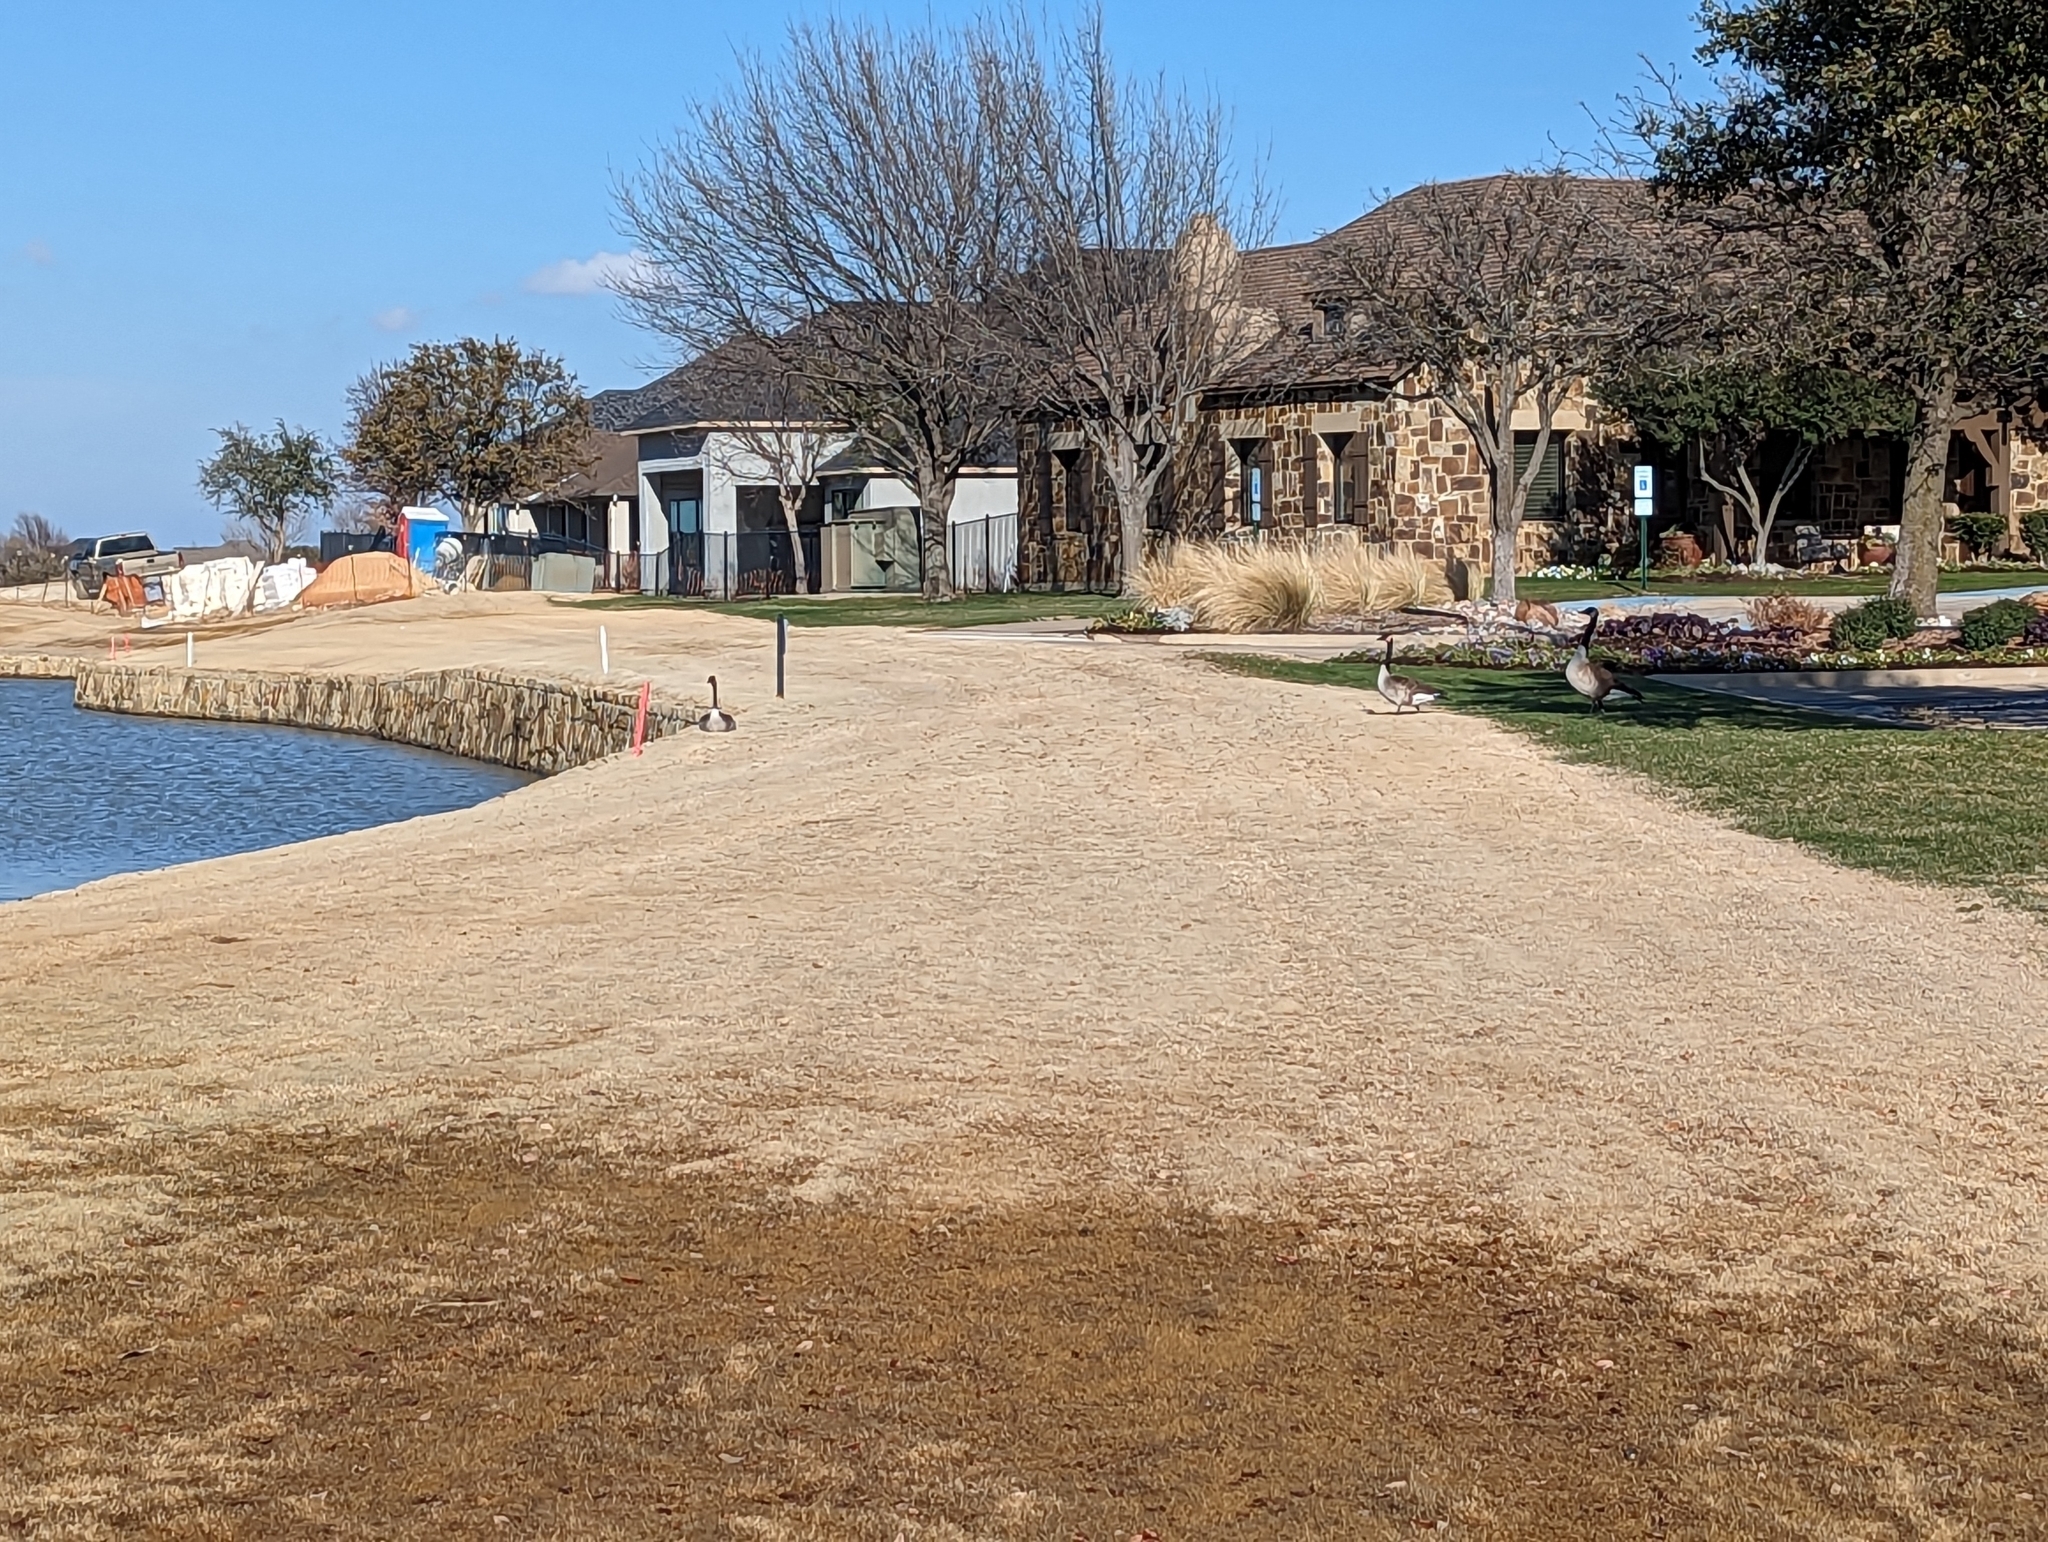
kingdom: Animalia
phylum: Chordata
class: Aves
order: Anseriformes
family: Anatidae
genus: Branta
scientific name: Branta canadensis
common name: Canada goose
